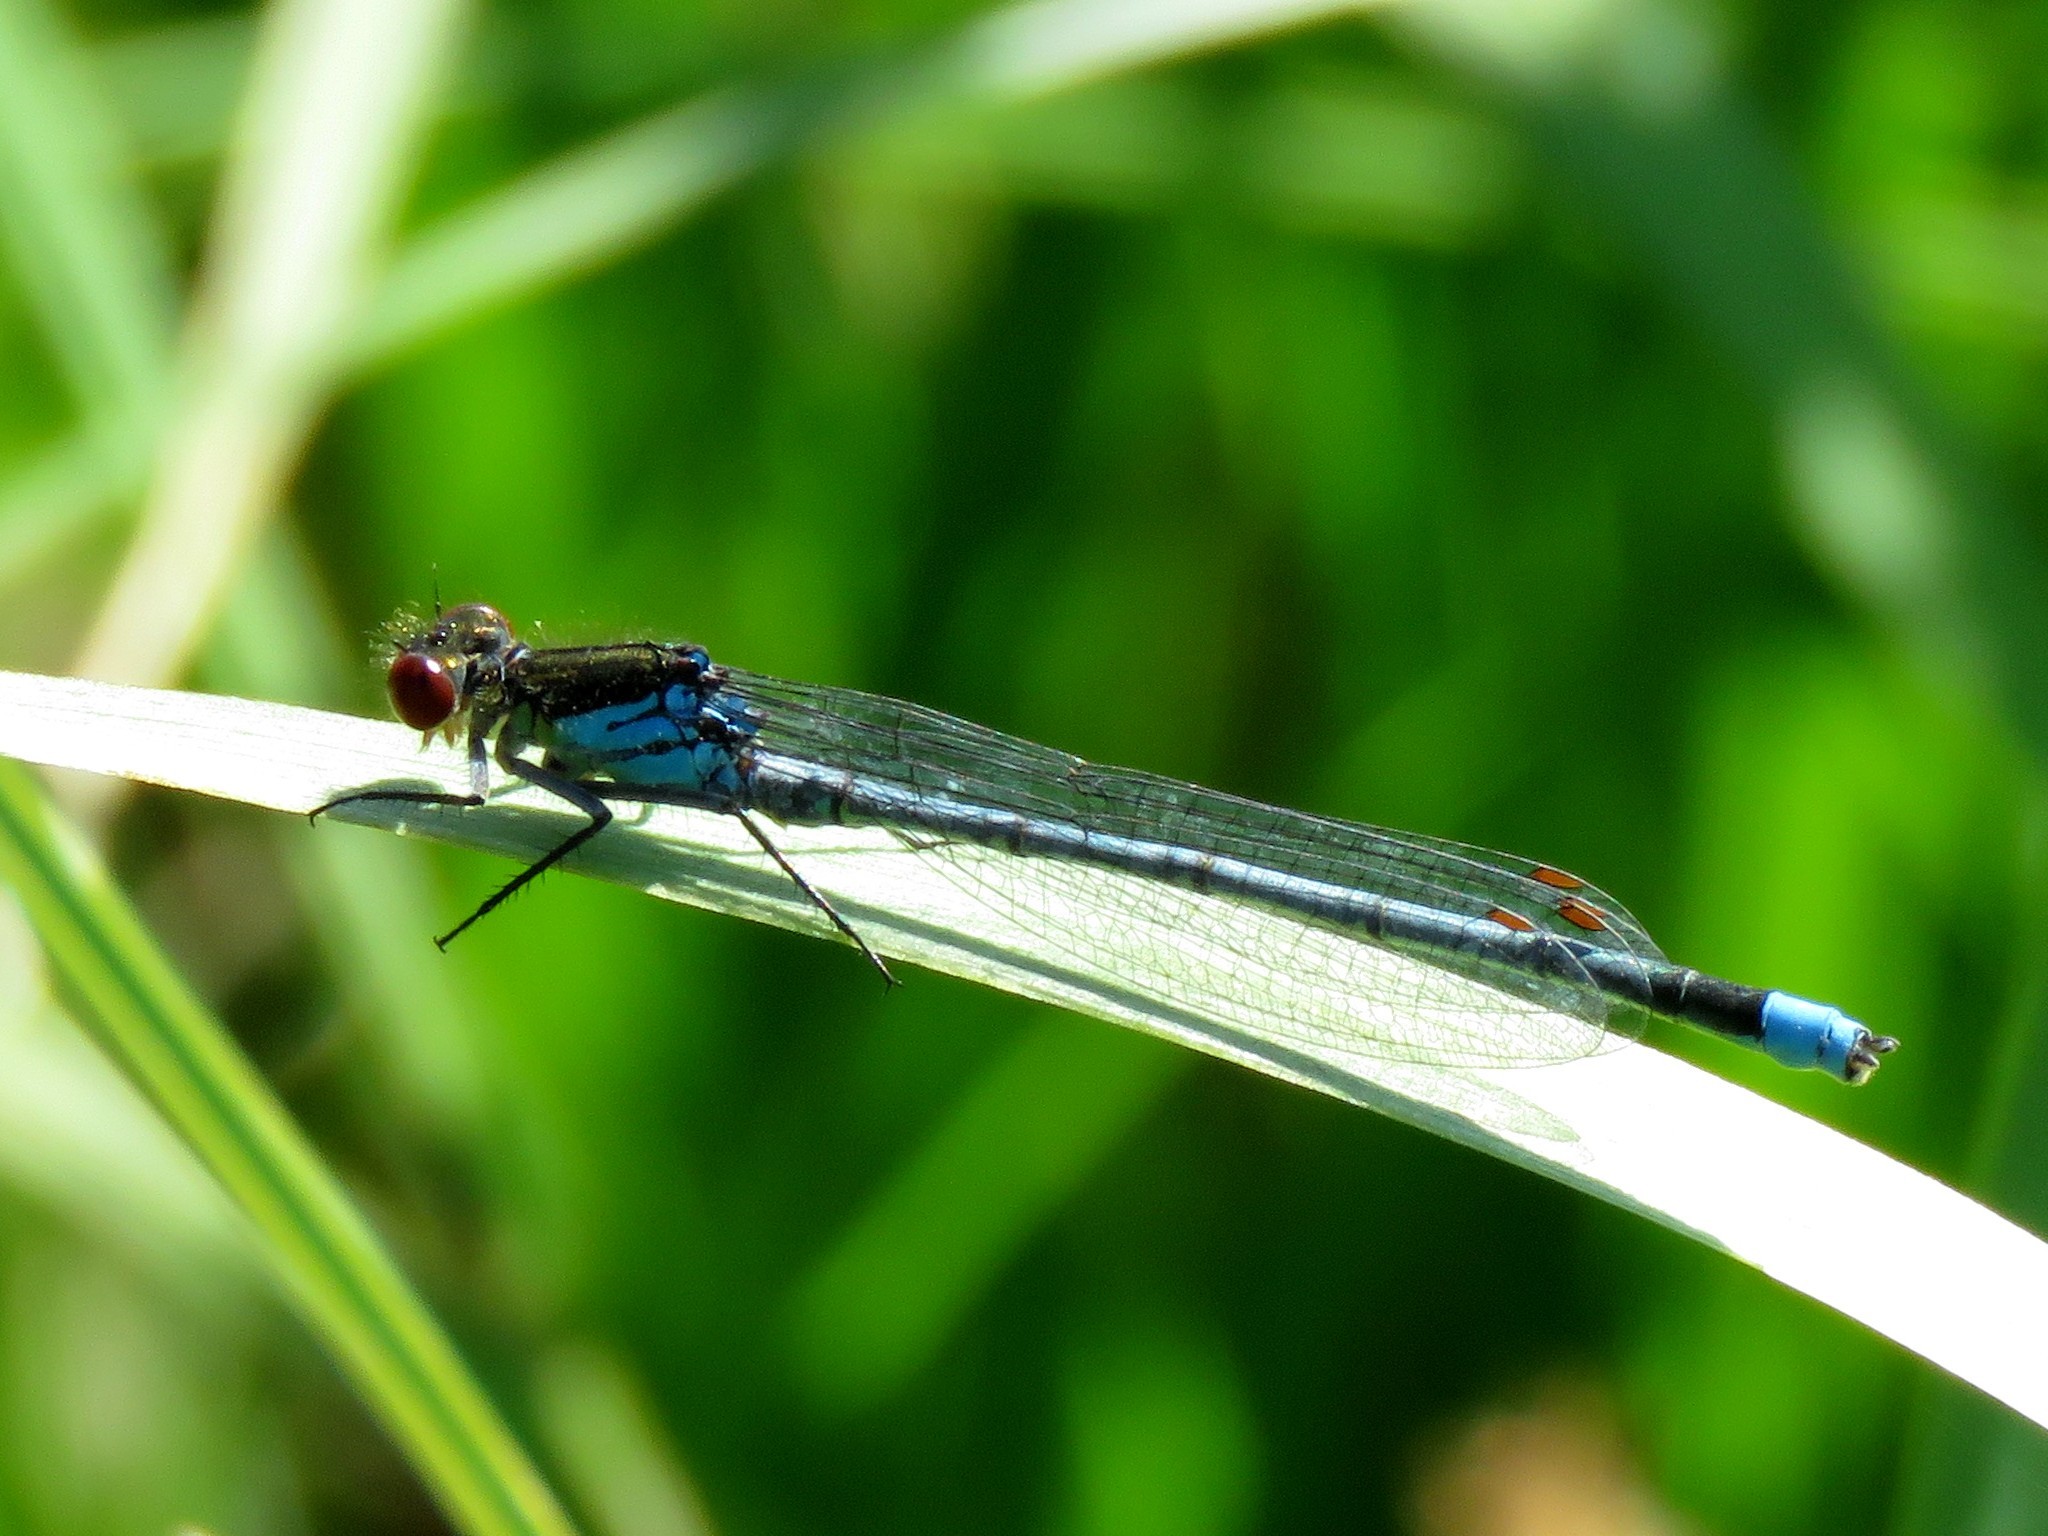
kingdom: Animalia
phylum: Arthropoda
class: Insecta
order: Odonata
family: Coenagrionidae
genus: Erythromma
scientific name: Erythromma najas
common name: Red-eyed damselfly
